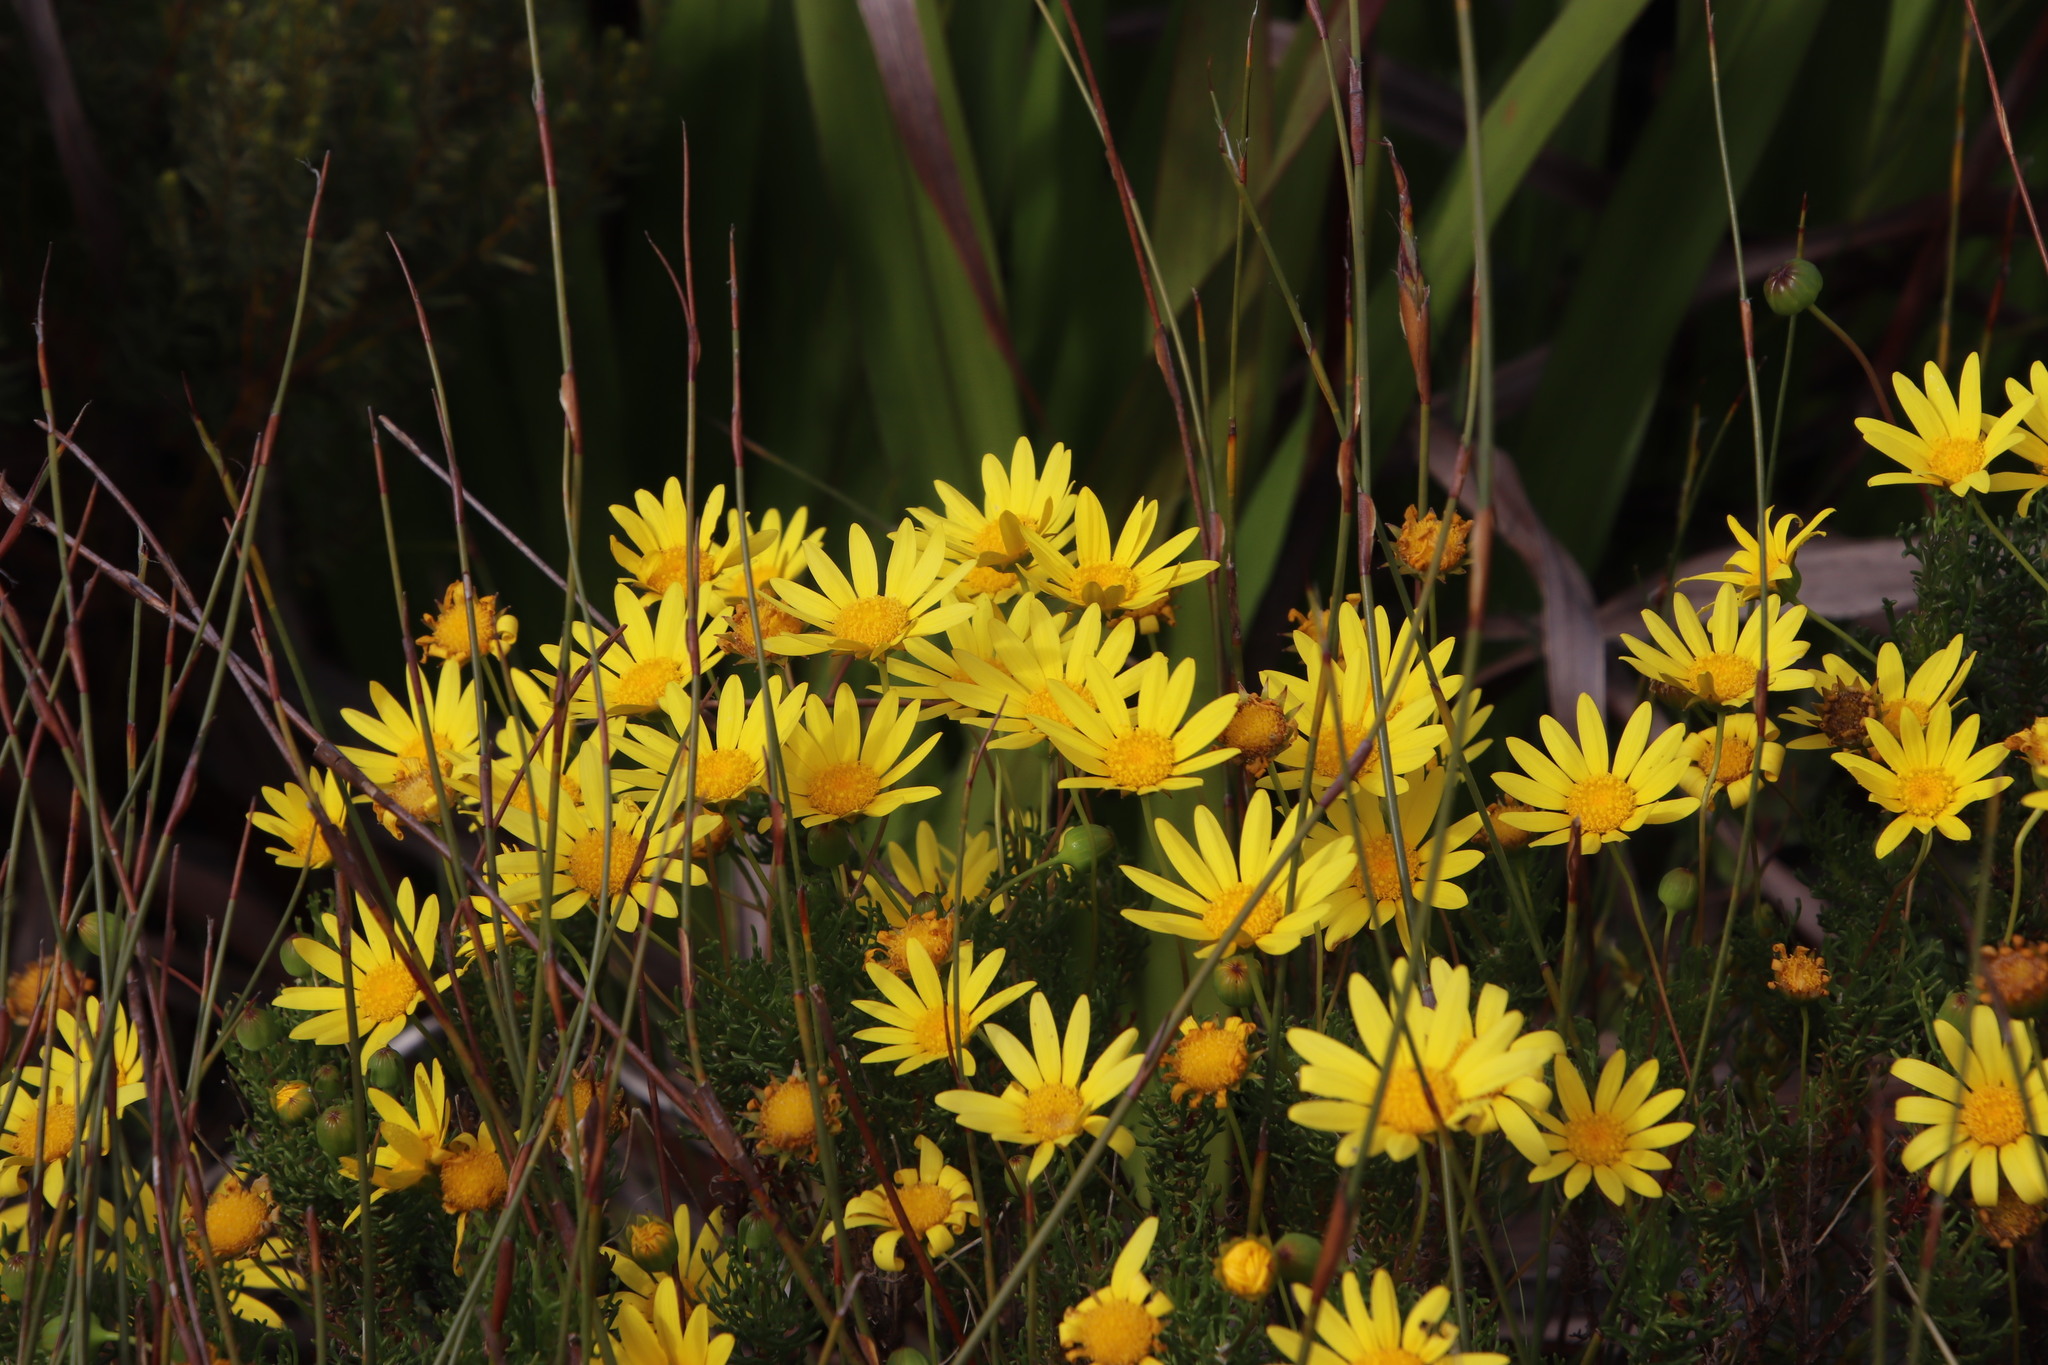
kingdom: Plantae
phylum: Tracheophyta
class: Magnoliopsida
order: Asterales
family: Asteraceae
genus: Euryops
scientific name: Euryops abrotanifolius
